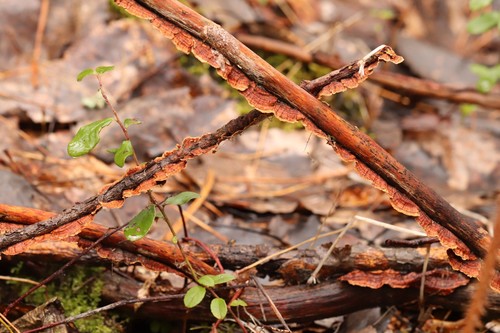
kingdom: Fungi
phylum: Basidiomycota
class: Agaricomycetes
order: Hymenochaetales
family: Hymenochaetaceae
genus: Hydnoporia
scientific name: Hydnoporia tabacina
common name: Willow glue
